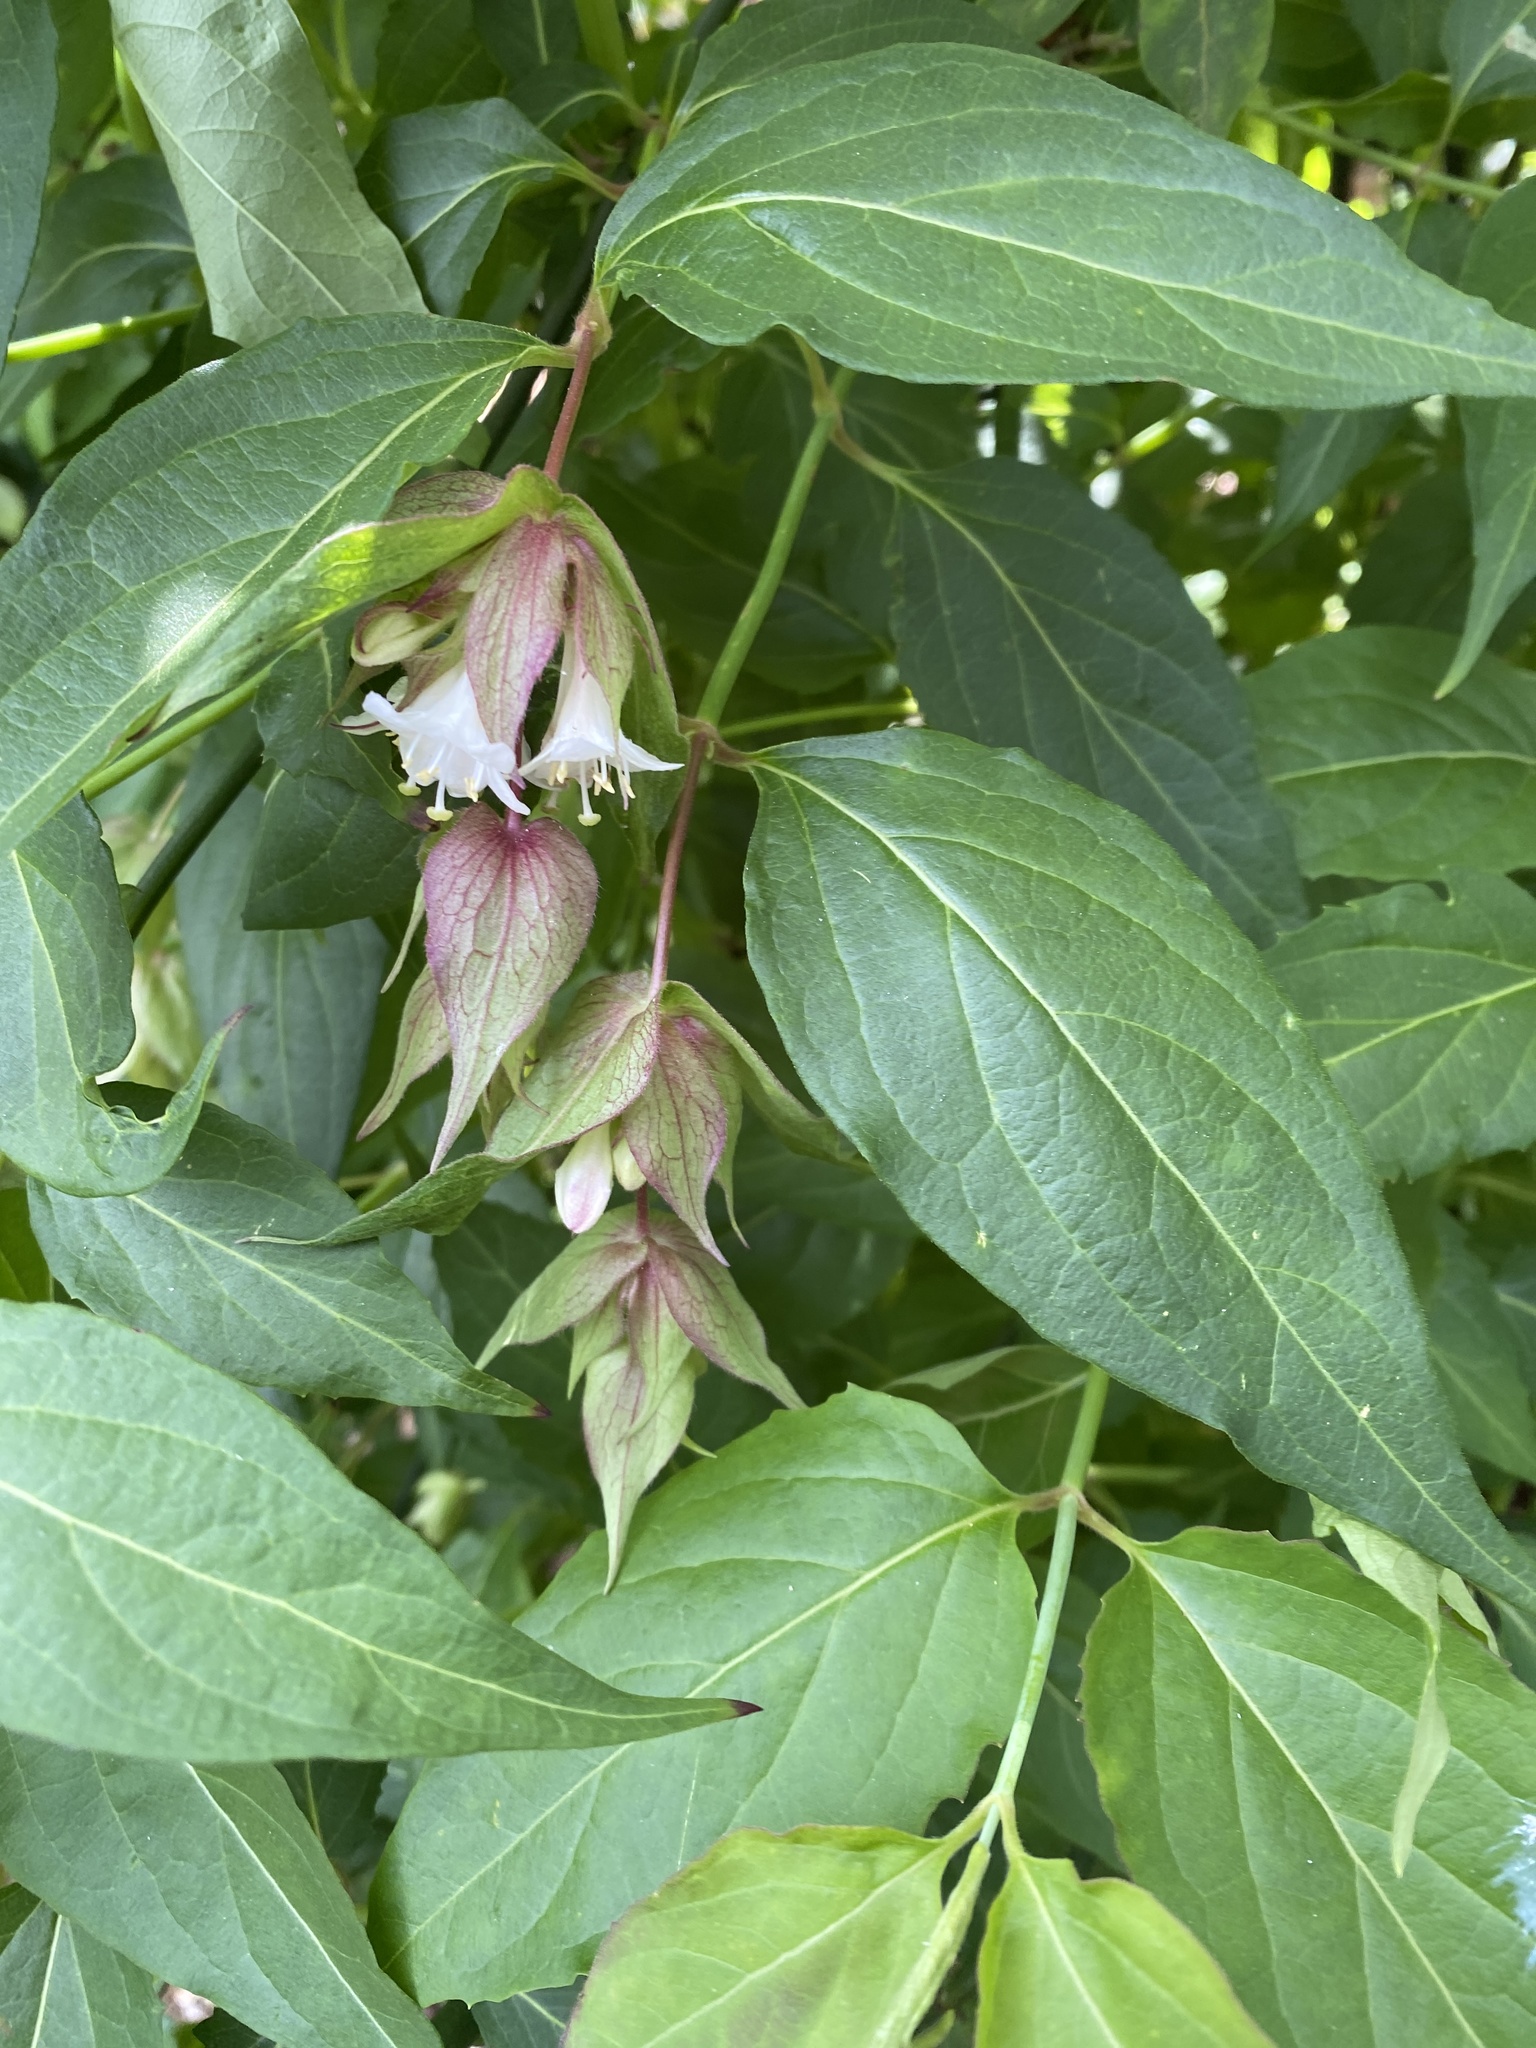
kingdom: Plantae
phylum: Tracheophyta
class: Magnoliopsida
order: Dipsacales
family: Caprifoliaceae
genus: Leycesteria
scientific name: Leycesteria formosa
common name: Himalayan honeysuckle
